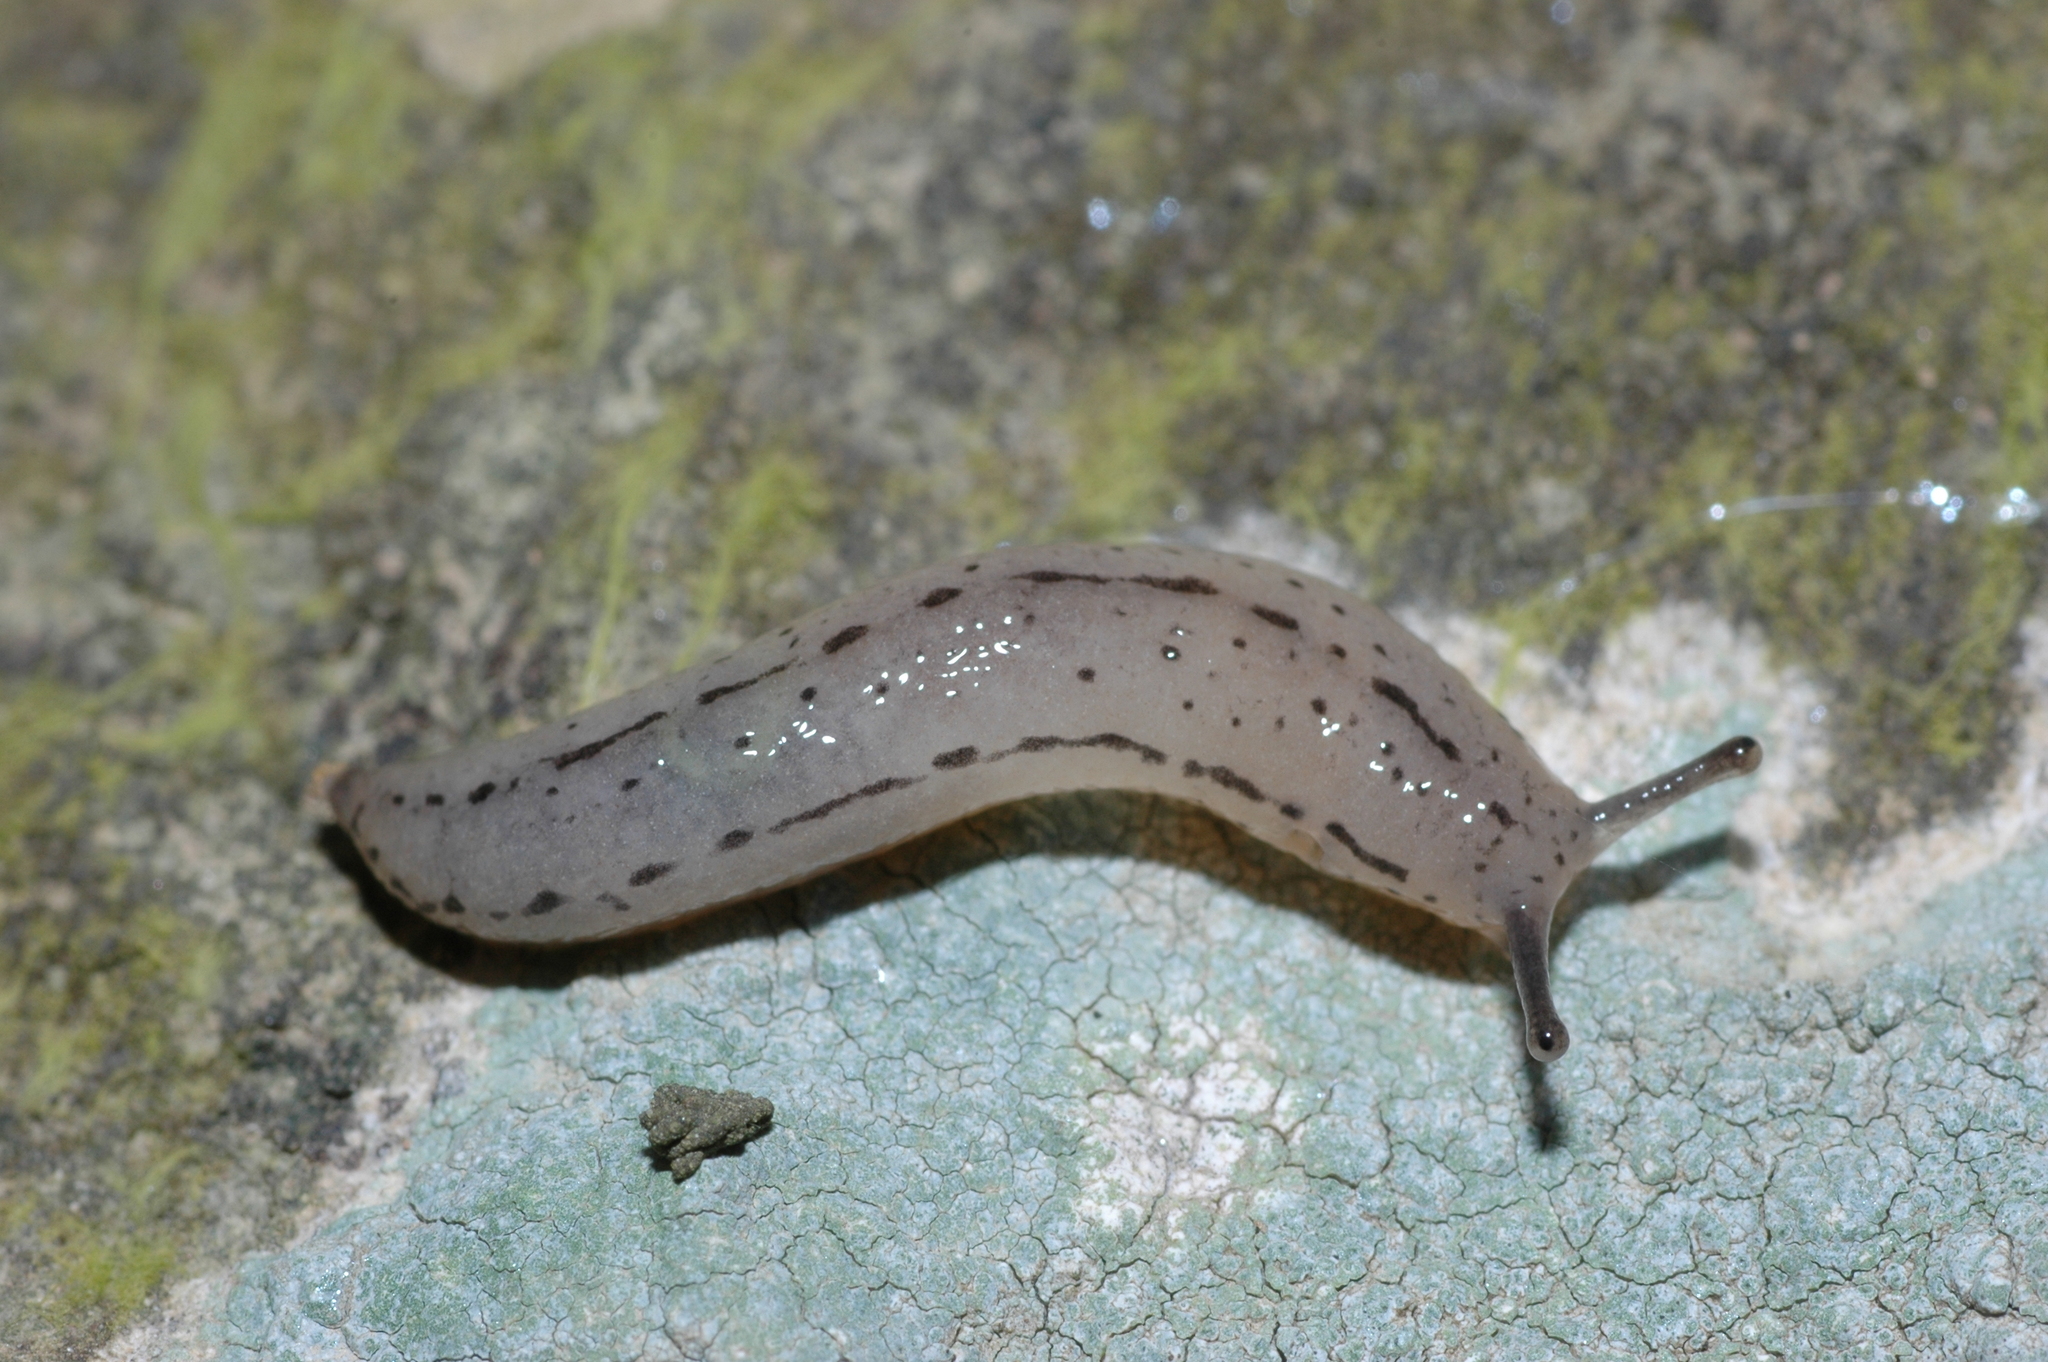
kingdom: Animalia
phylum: Mollusca
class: Gastropoda
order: Stylommatophora
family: Philomycidae
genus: Meghimatium
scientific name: Meghimatium bilineatum
